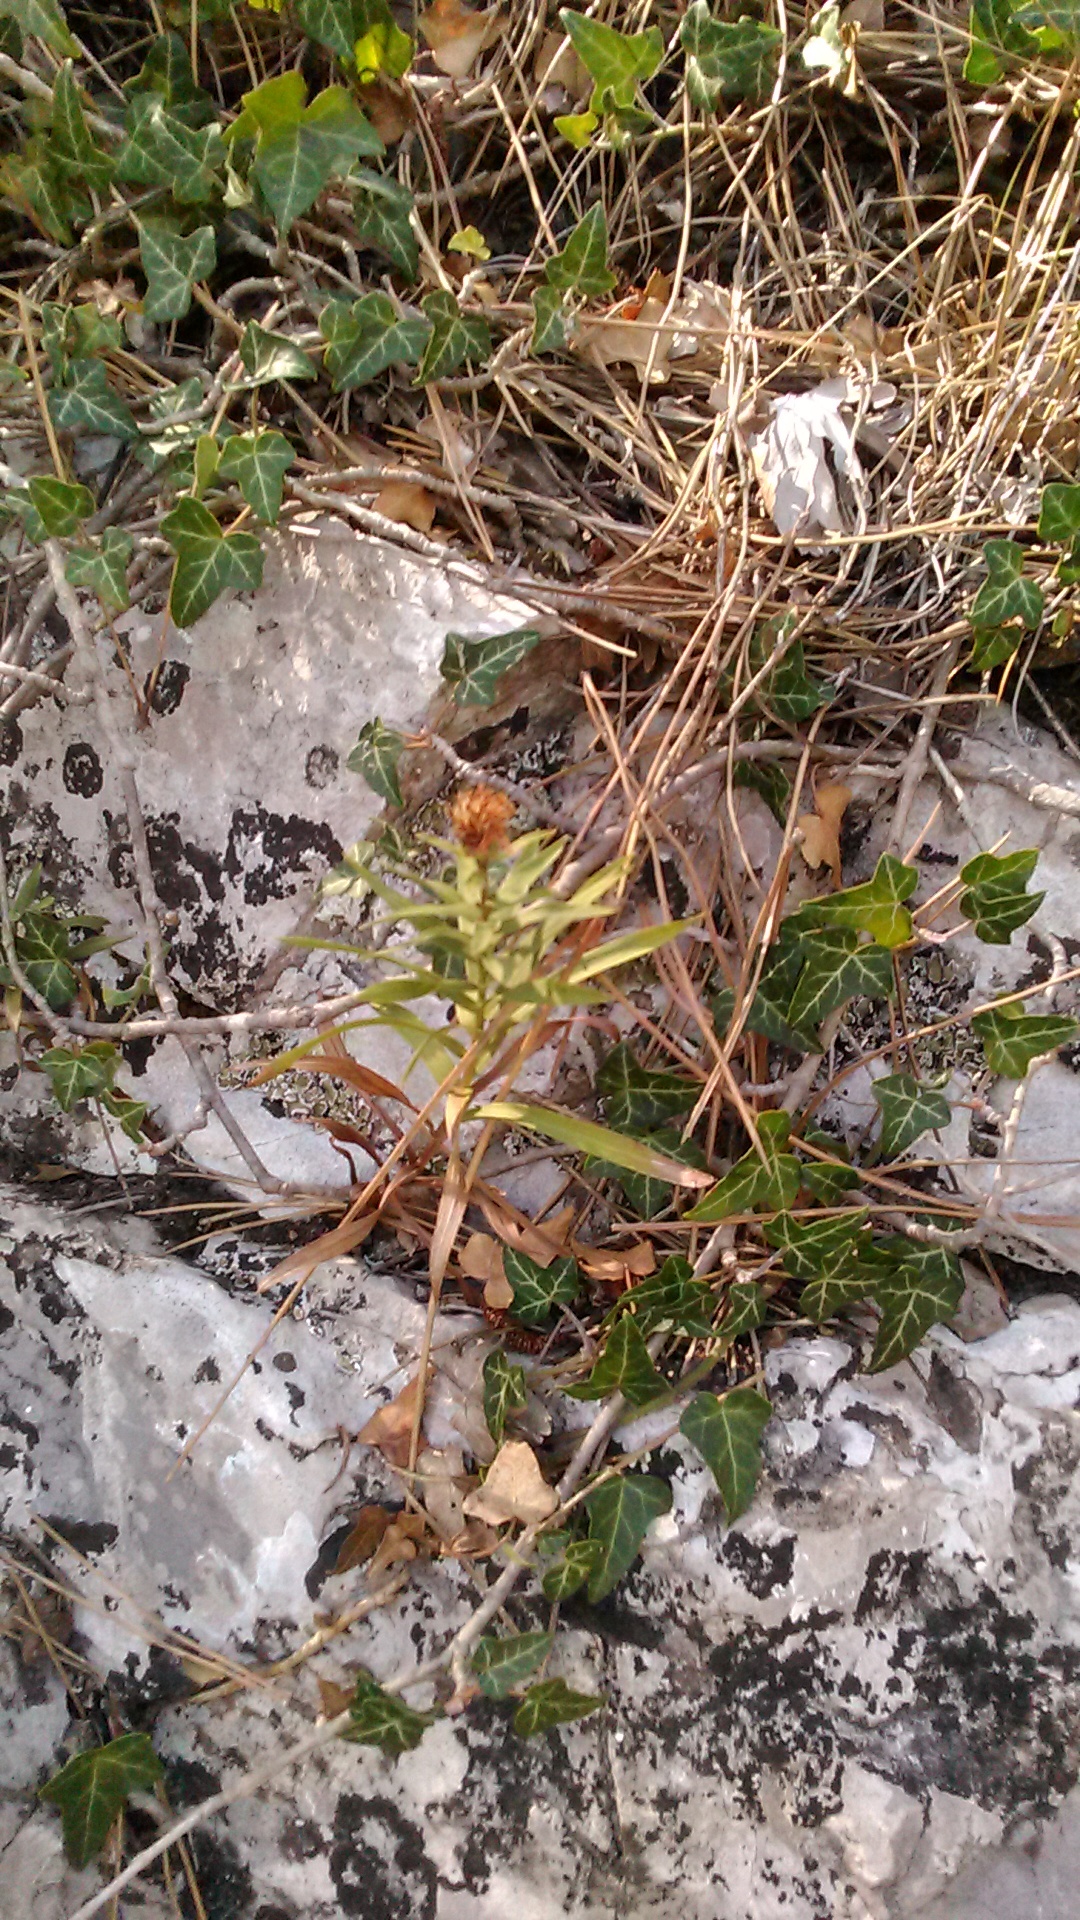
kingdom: Plantae
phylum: Tracheophyta
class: Magnoliopsida
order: Asterales
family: Asteraceae
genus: Pentanema
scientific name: Pentanema ensifolium
